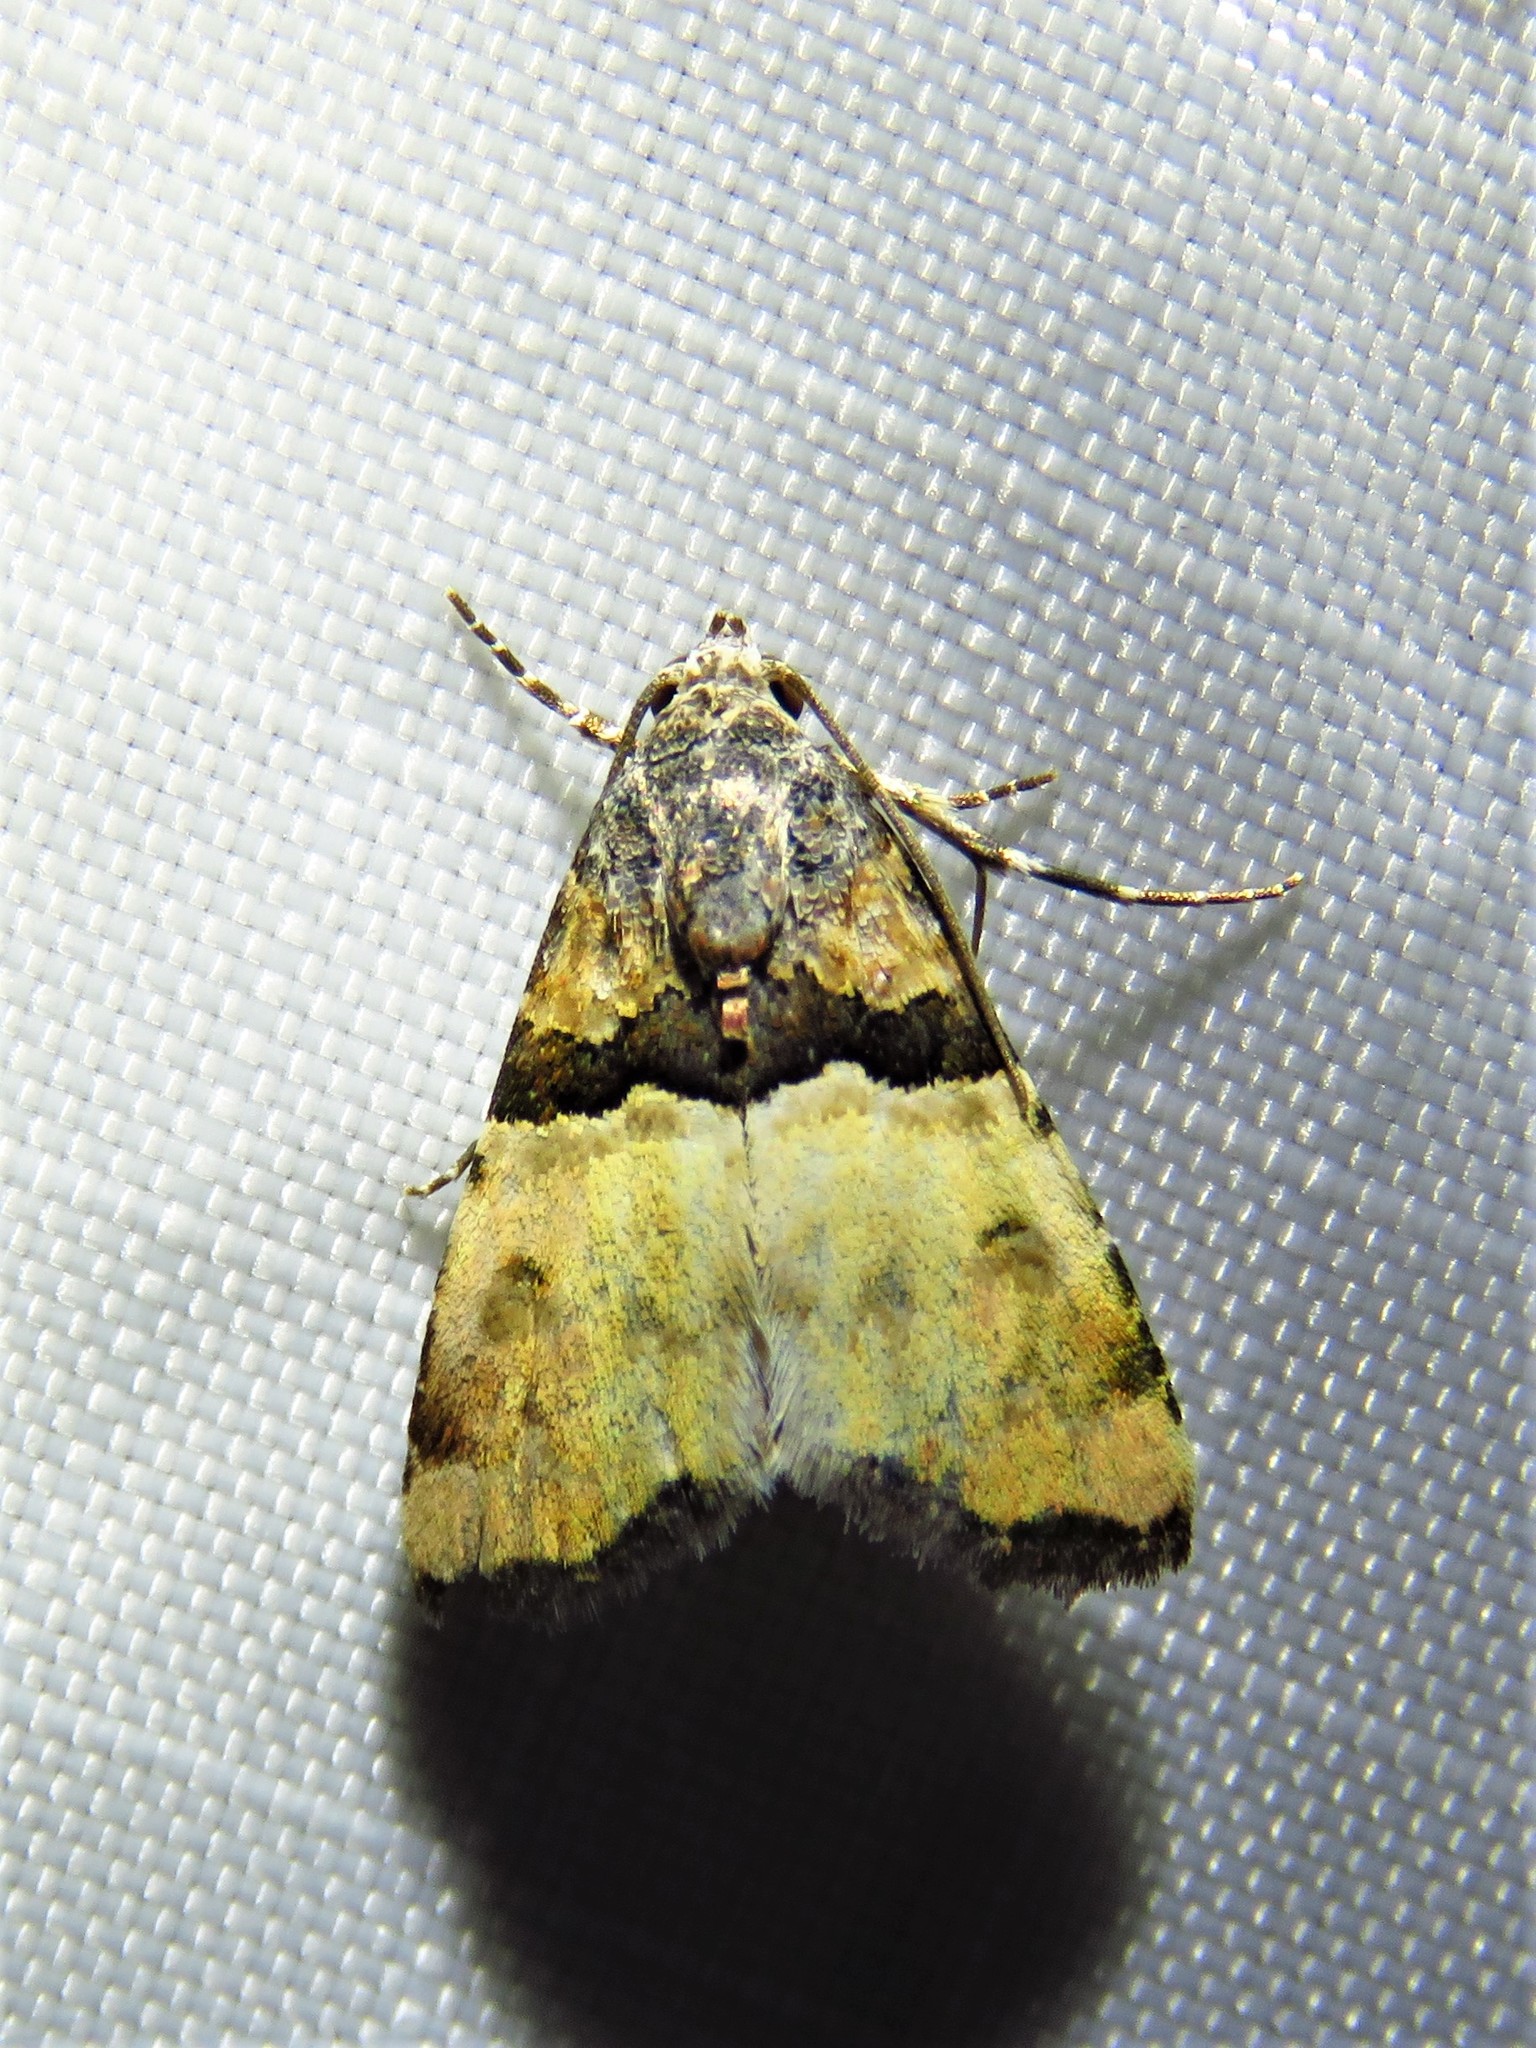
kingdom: Animalia
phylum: Arthropoda
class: Insecta
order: Lepidoptera
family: Noctuidae
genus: Cobubatha
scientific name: Cobubatha dividua
